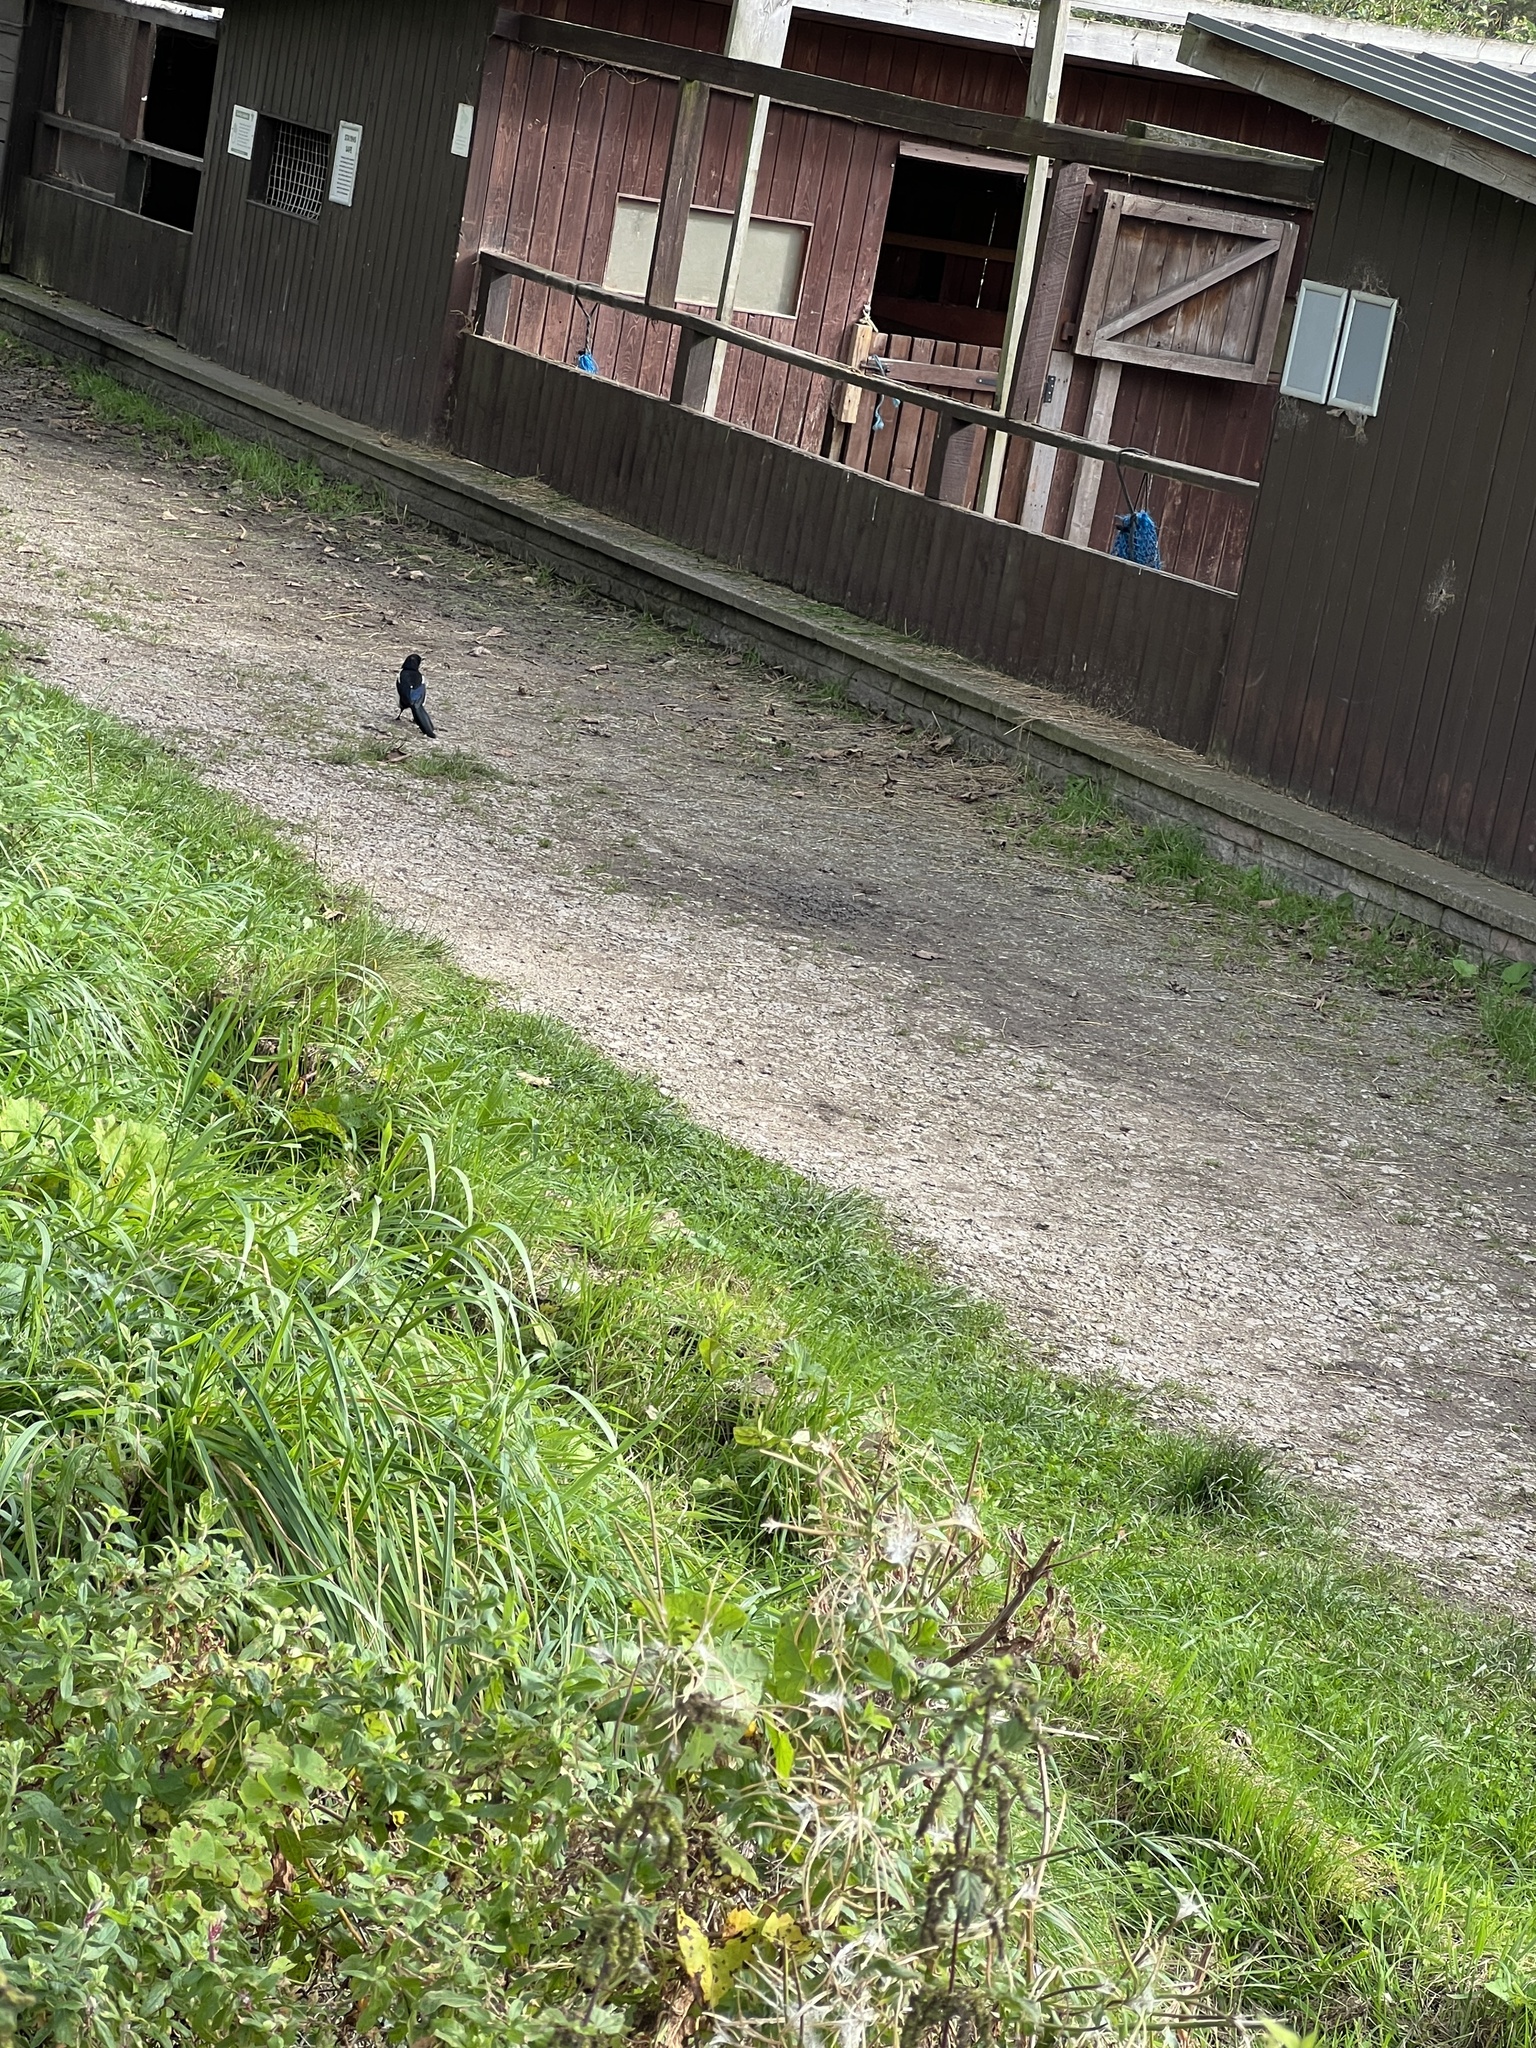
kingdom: Animalia
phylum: Chordata
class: Aves
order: Passeriformes
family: Corvidae
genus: Pica
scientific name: Pica pica
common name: Eurasian magpie
